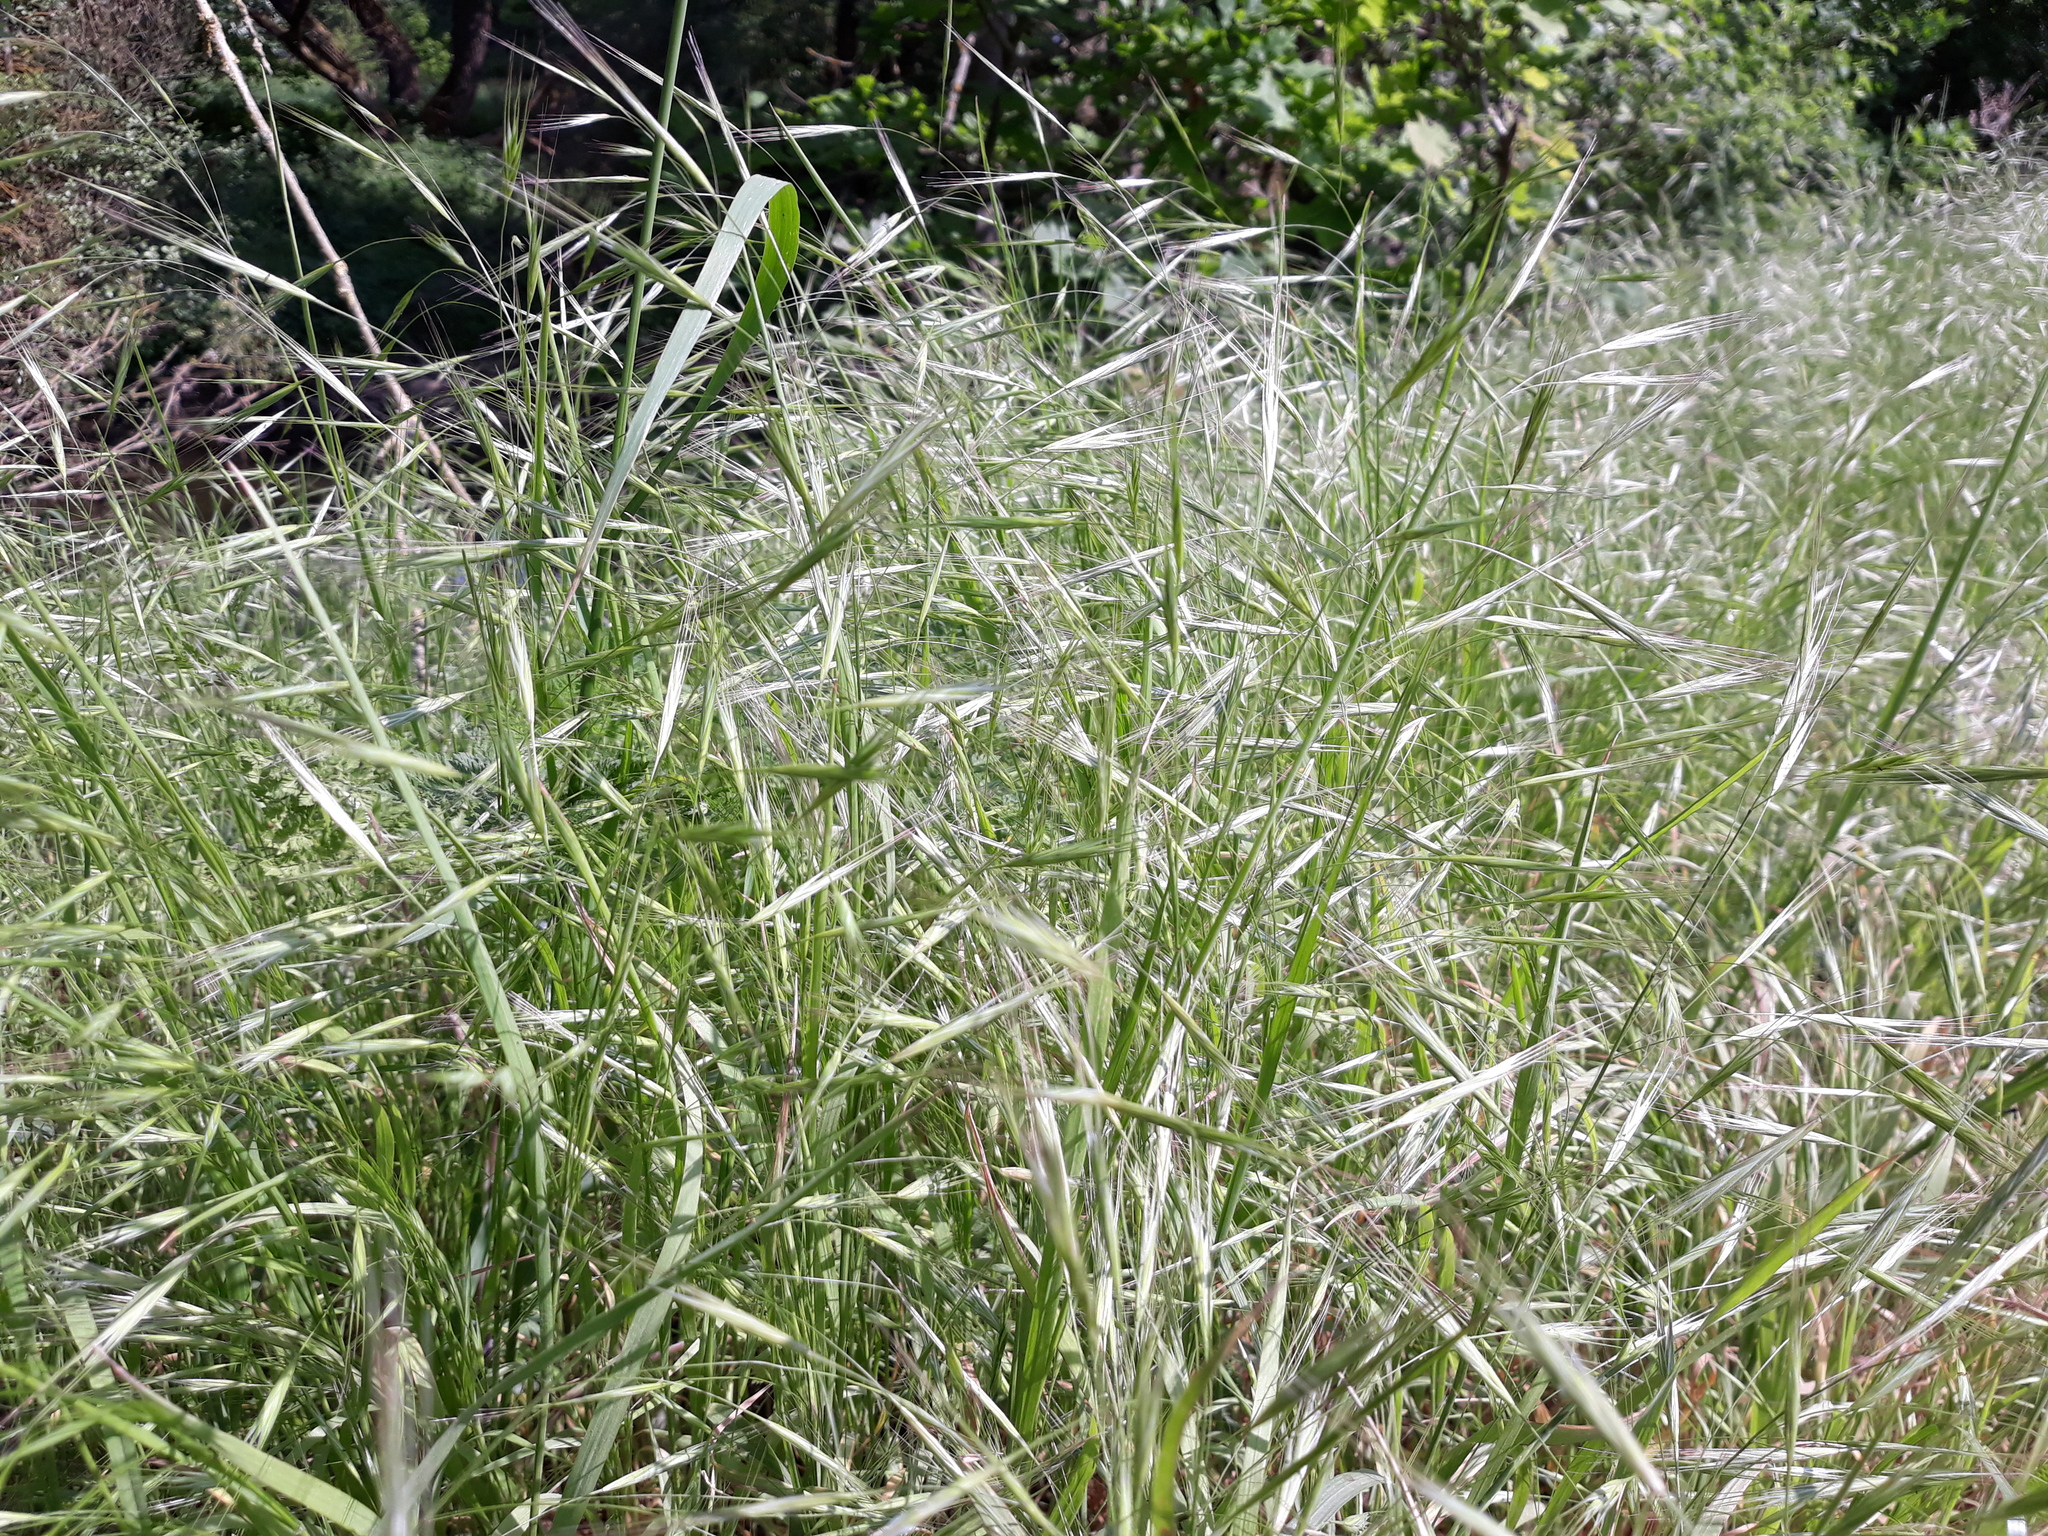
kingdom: Plantae
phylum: Tracheophyta
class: Liliopsida
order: Poales
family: Poaceae
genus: Bromus
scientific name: Bromus sterilis
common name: Poverty brome
